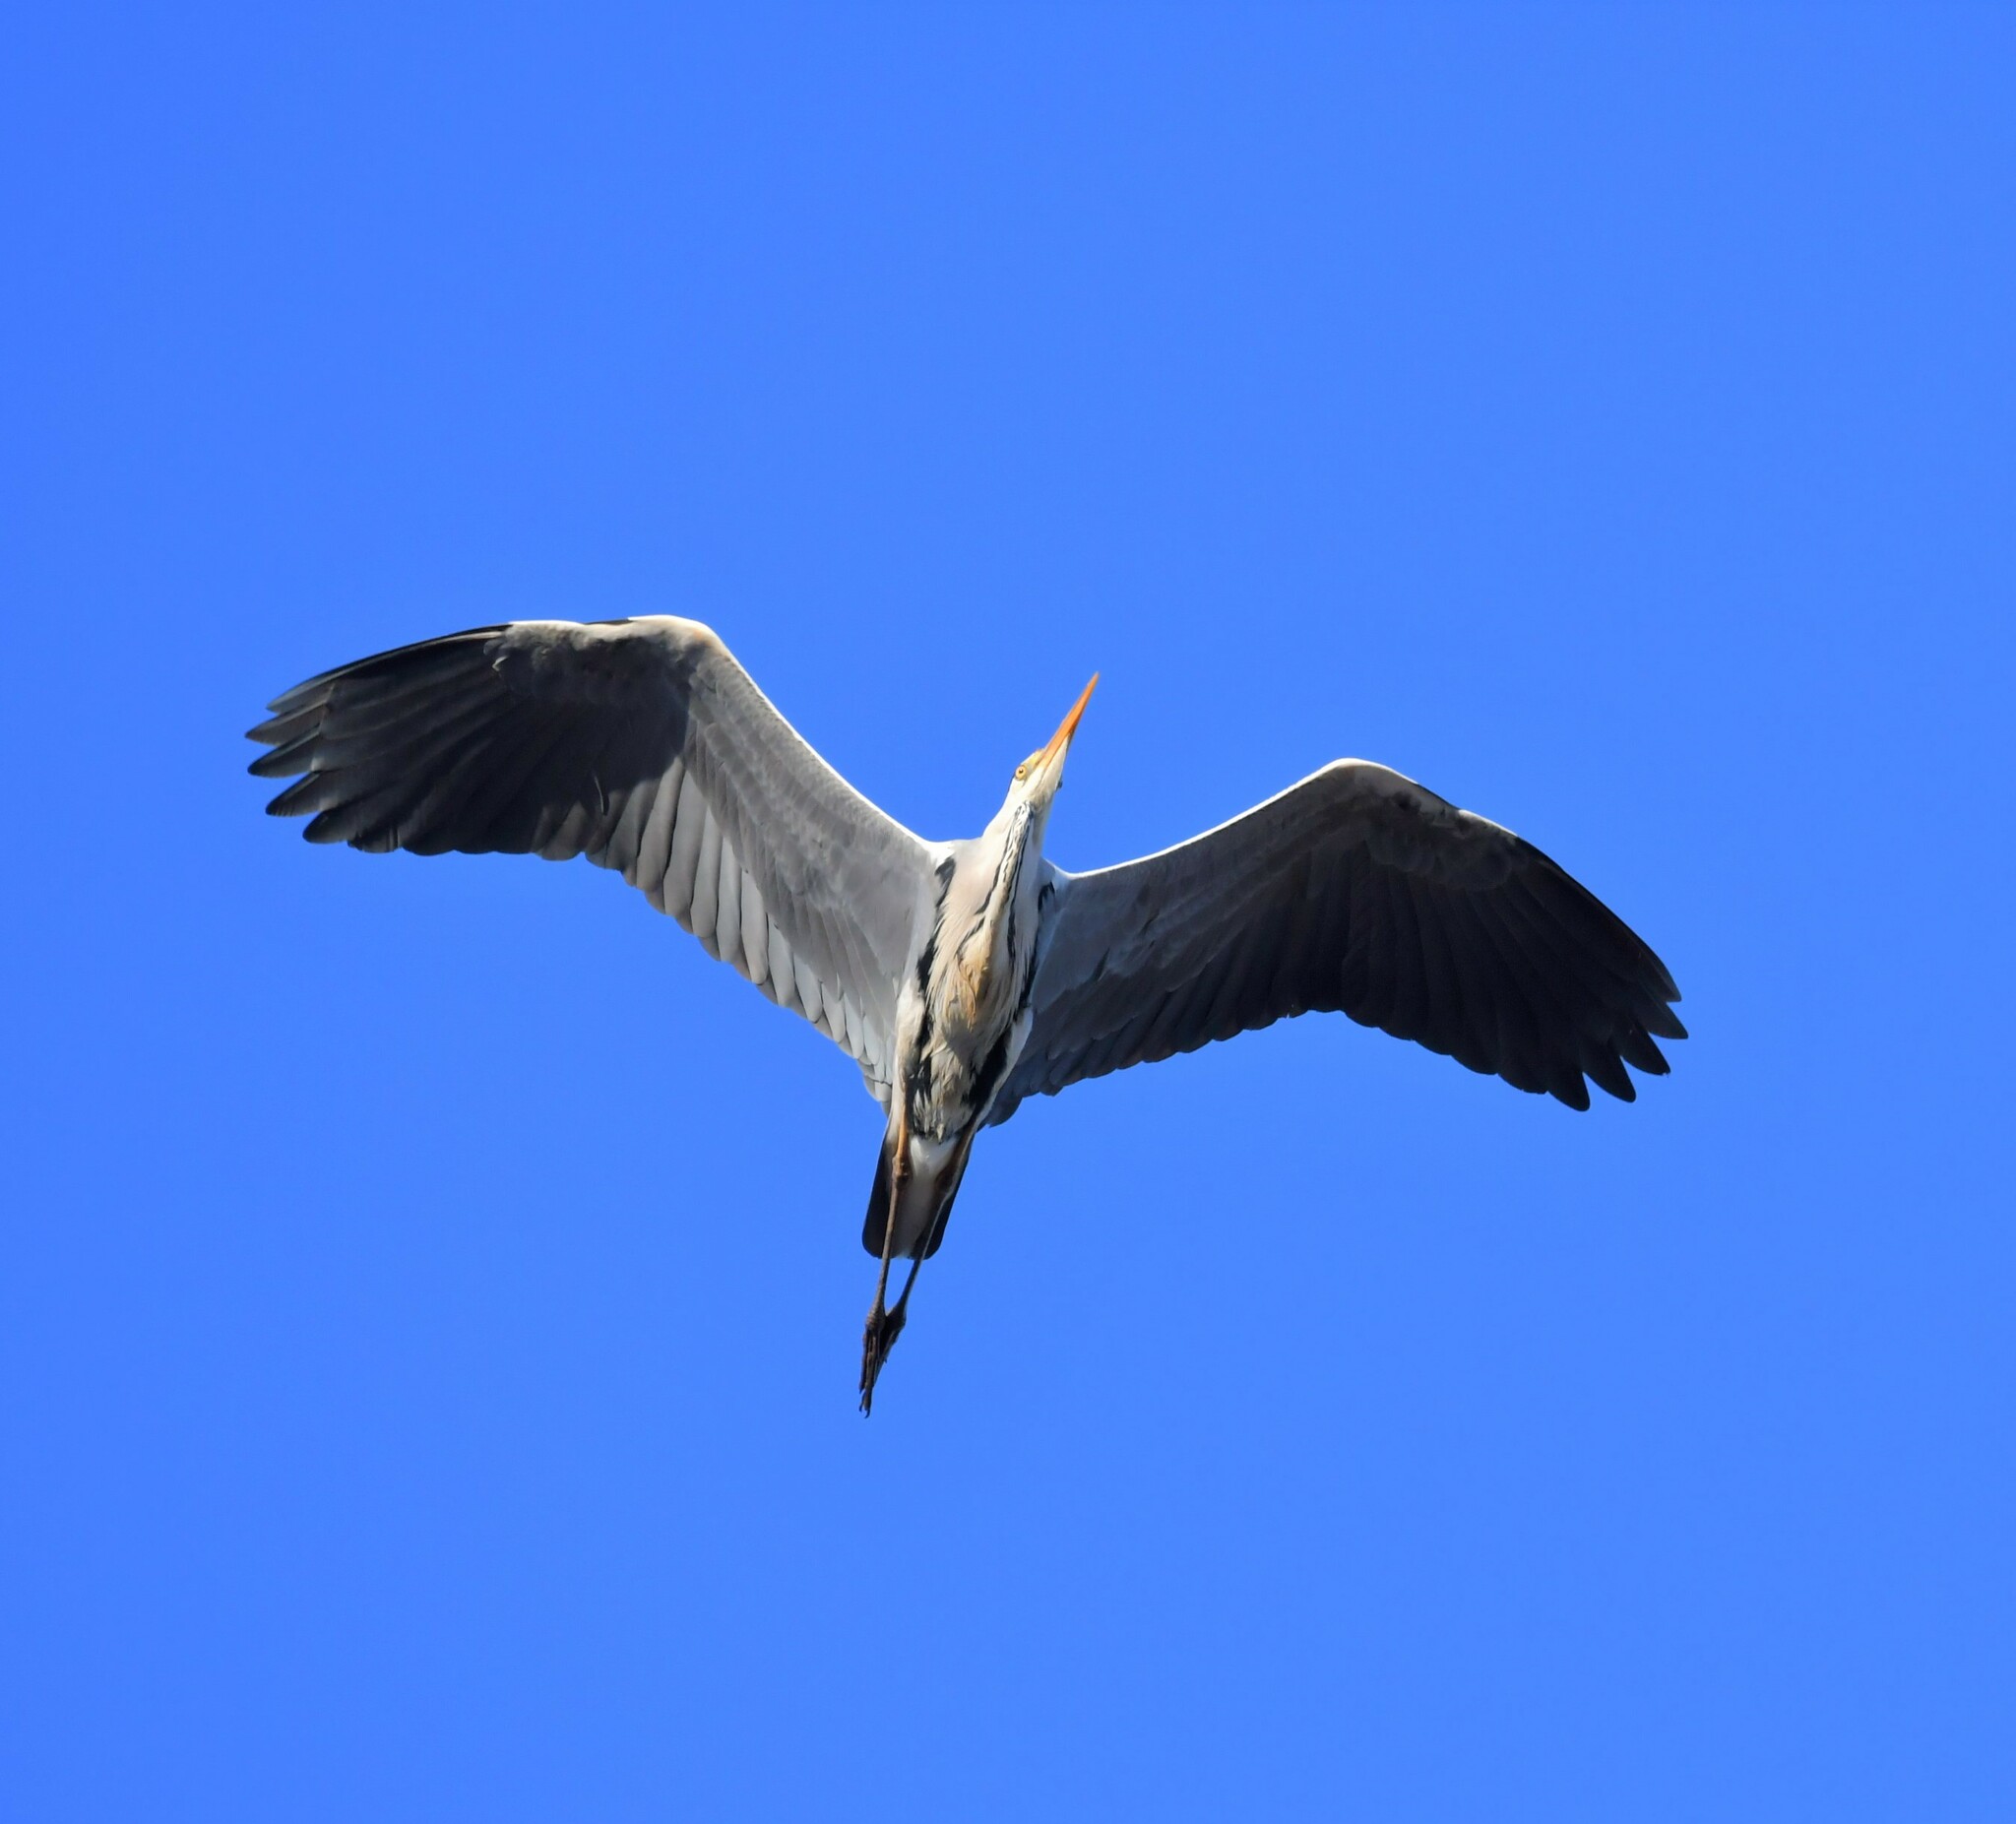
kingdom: Animalia
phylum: Chordata
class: Aves
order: Pelecaniformes
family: Ardeidae
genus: Ardea
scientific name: Ardea cinerea
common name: Grey heron
